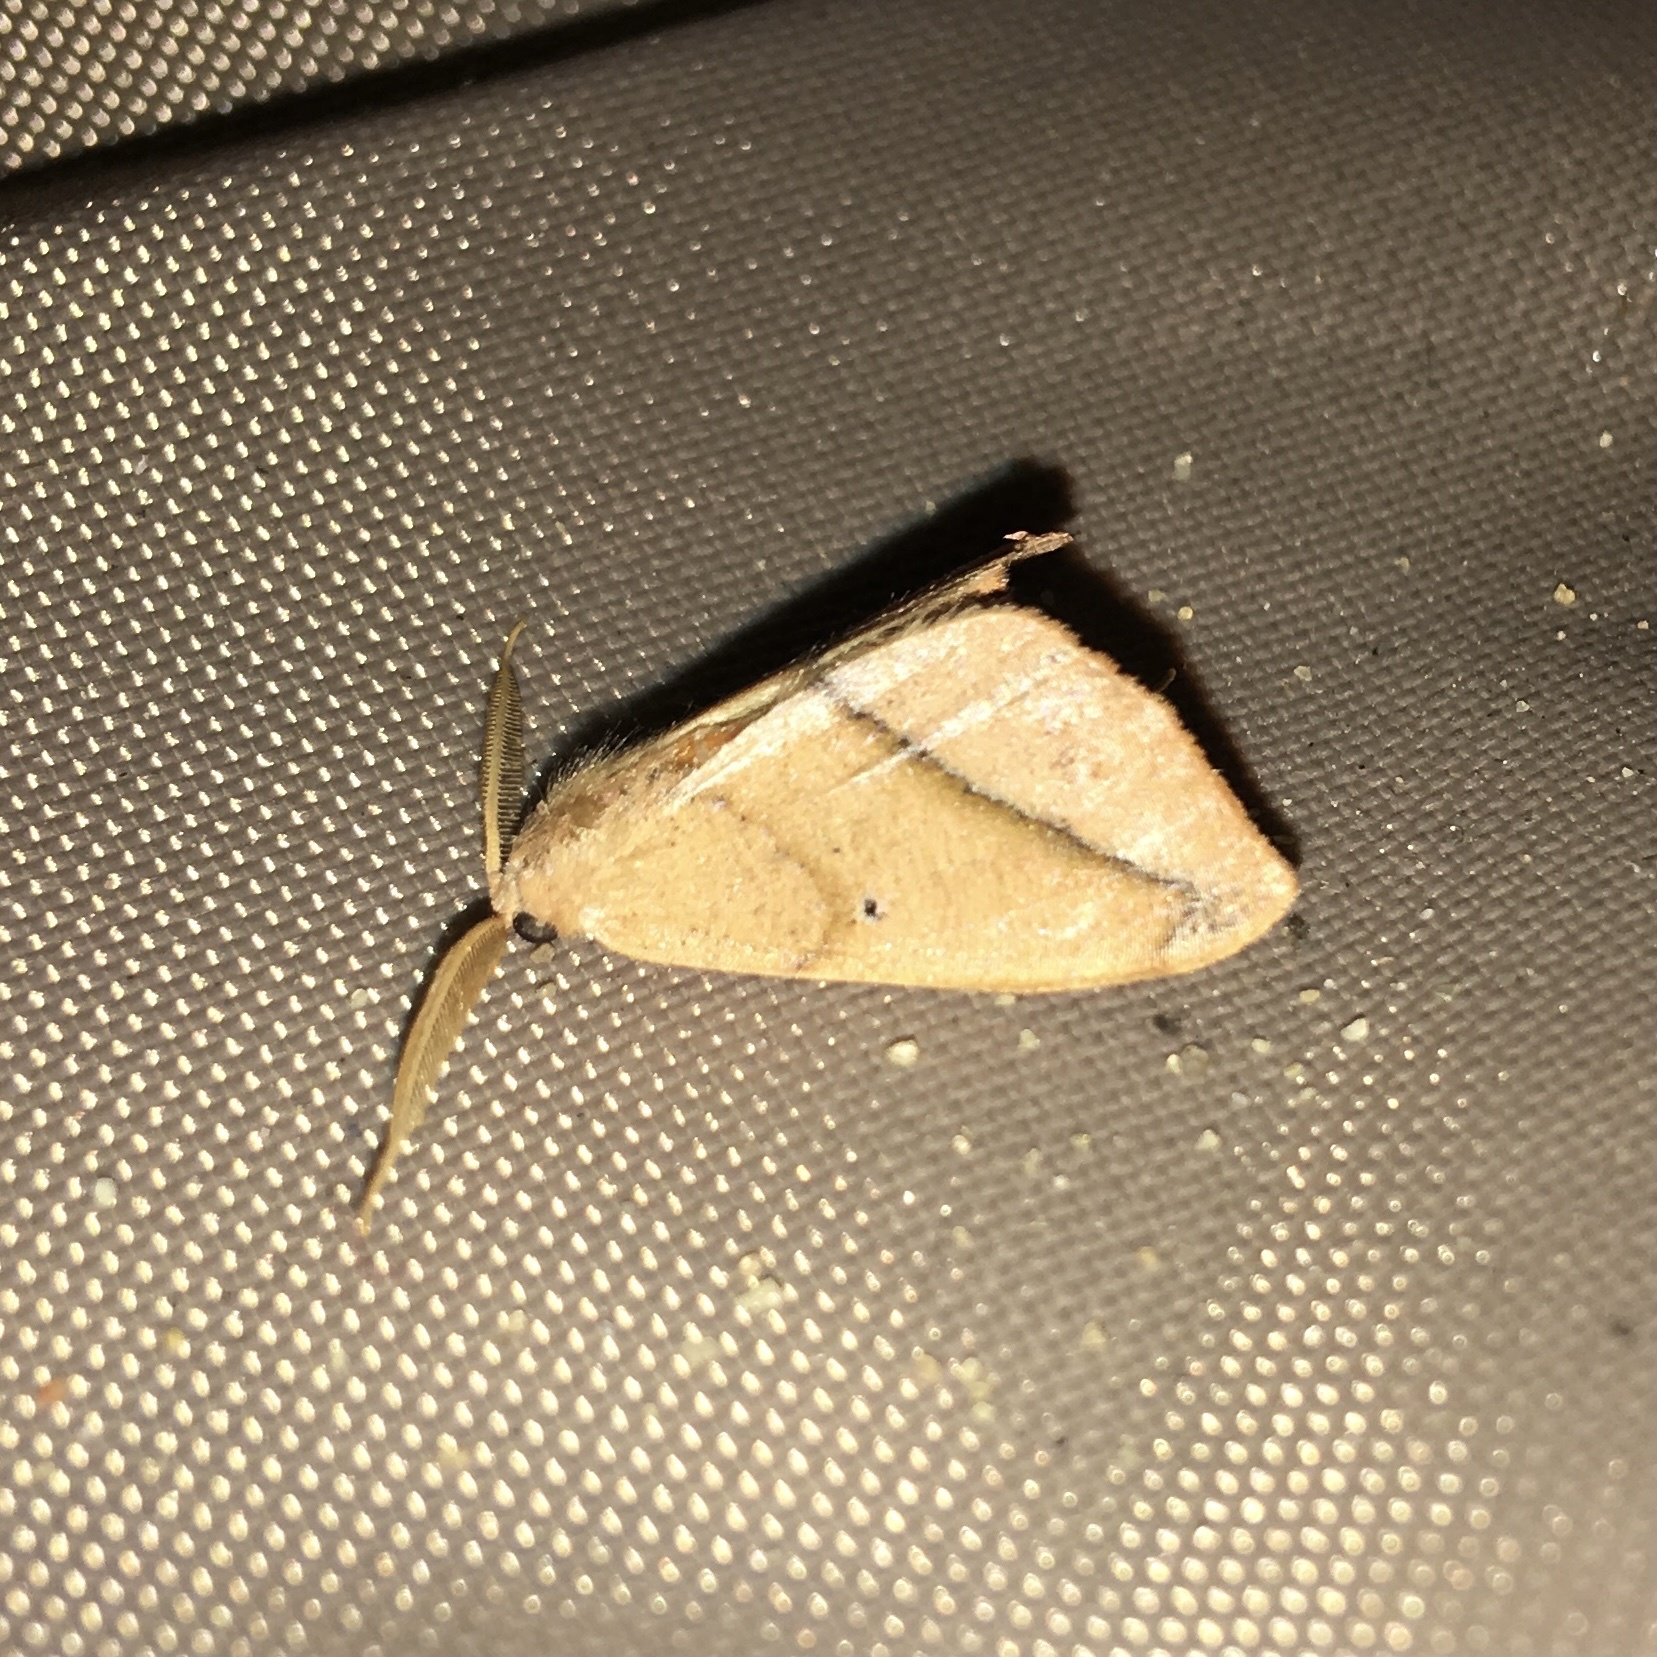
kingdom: Animalia
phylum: Arthropoda
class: Insecta
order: Lepidoptera
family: Geometridae
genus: Patalene
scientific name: Patalene olyzonaria
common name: Juniper geometer moth
